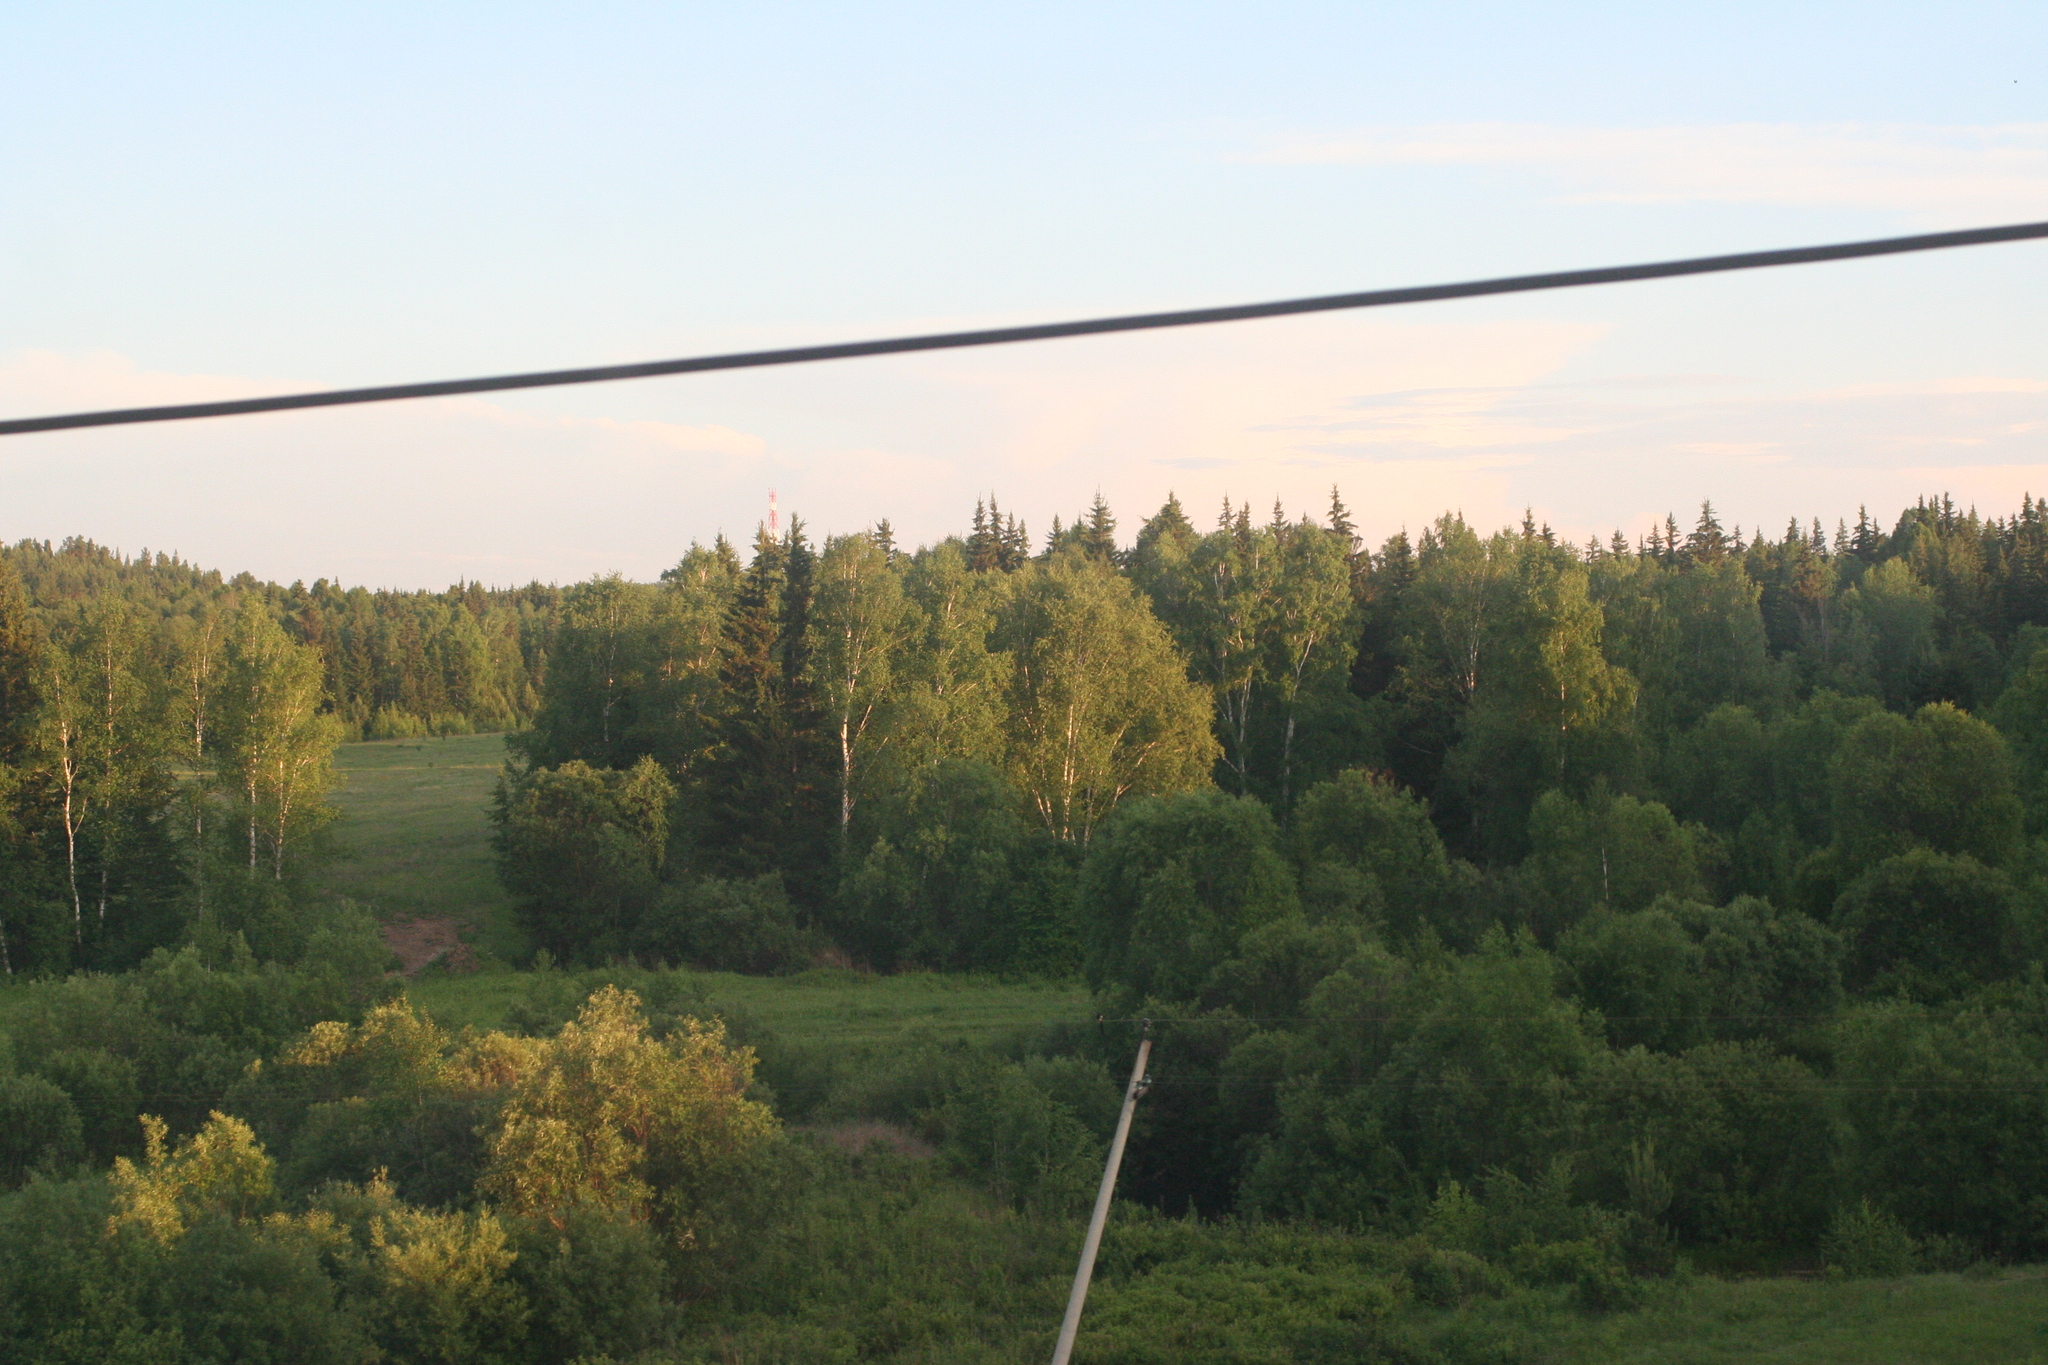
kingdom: Plantae
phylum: Tracheophyta
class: Pinopsida
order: Pinales
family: Pinaceae
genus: Picea
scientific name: Picea obovata
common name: Siberian spruce
